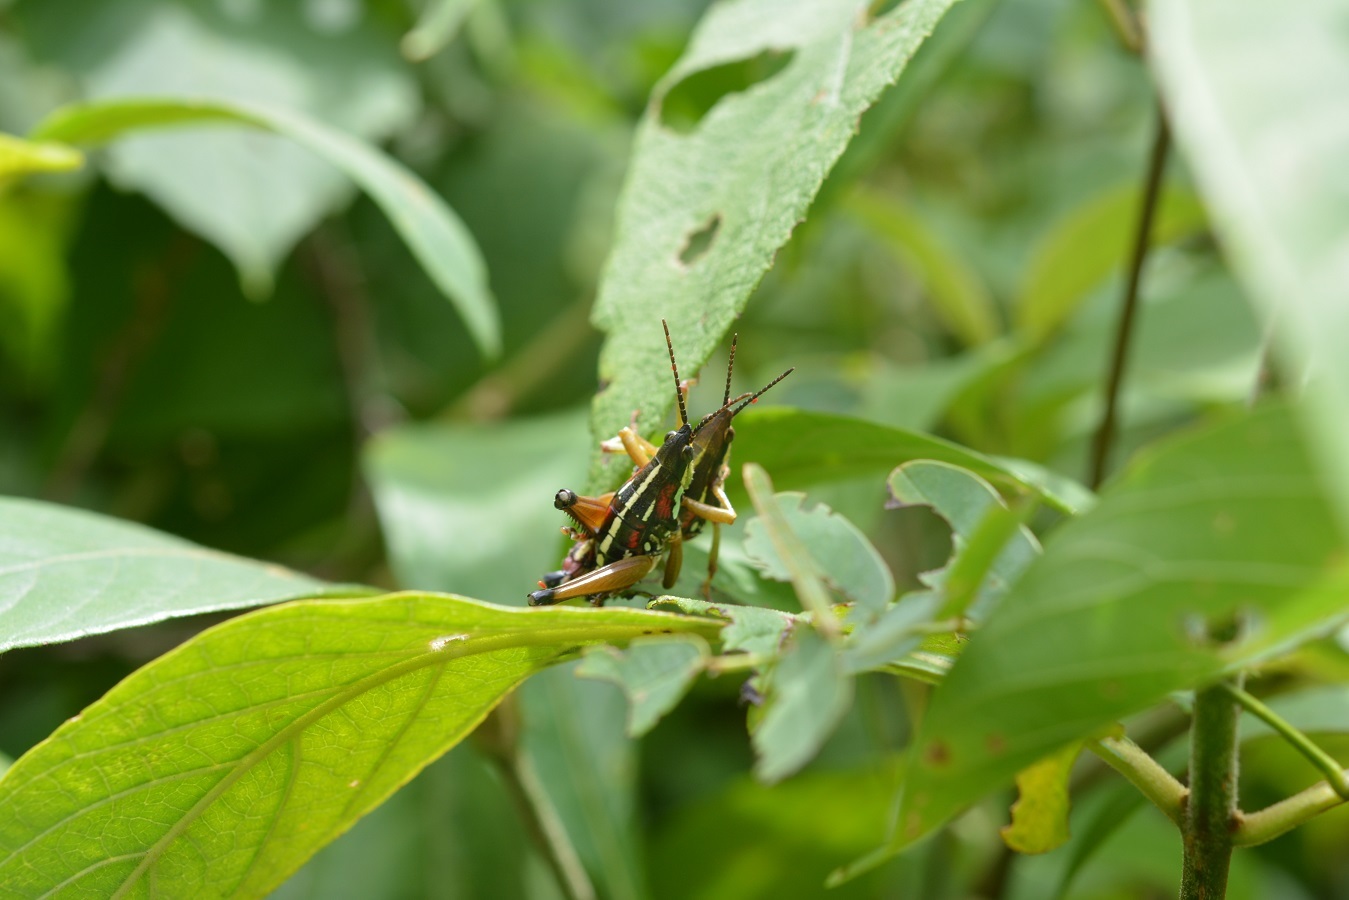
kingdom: Animalia
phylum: Arthropoda
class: Insecta
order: Orthoptera
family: Pyrgomorphidae
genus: Sphenarium
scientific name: Sphenarium histrio
